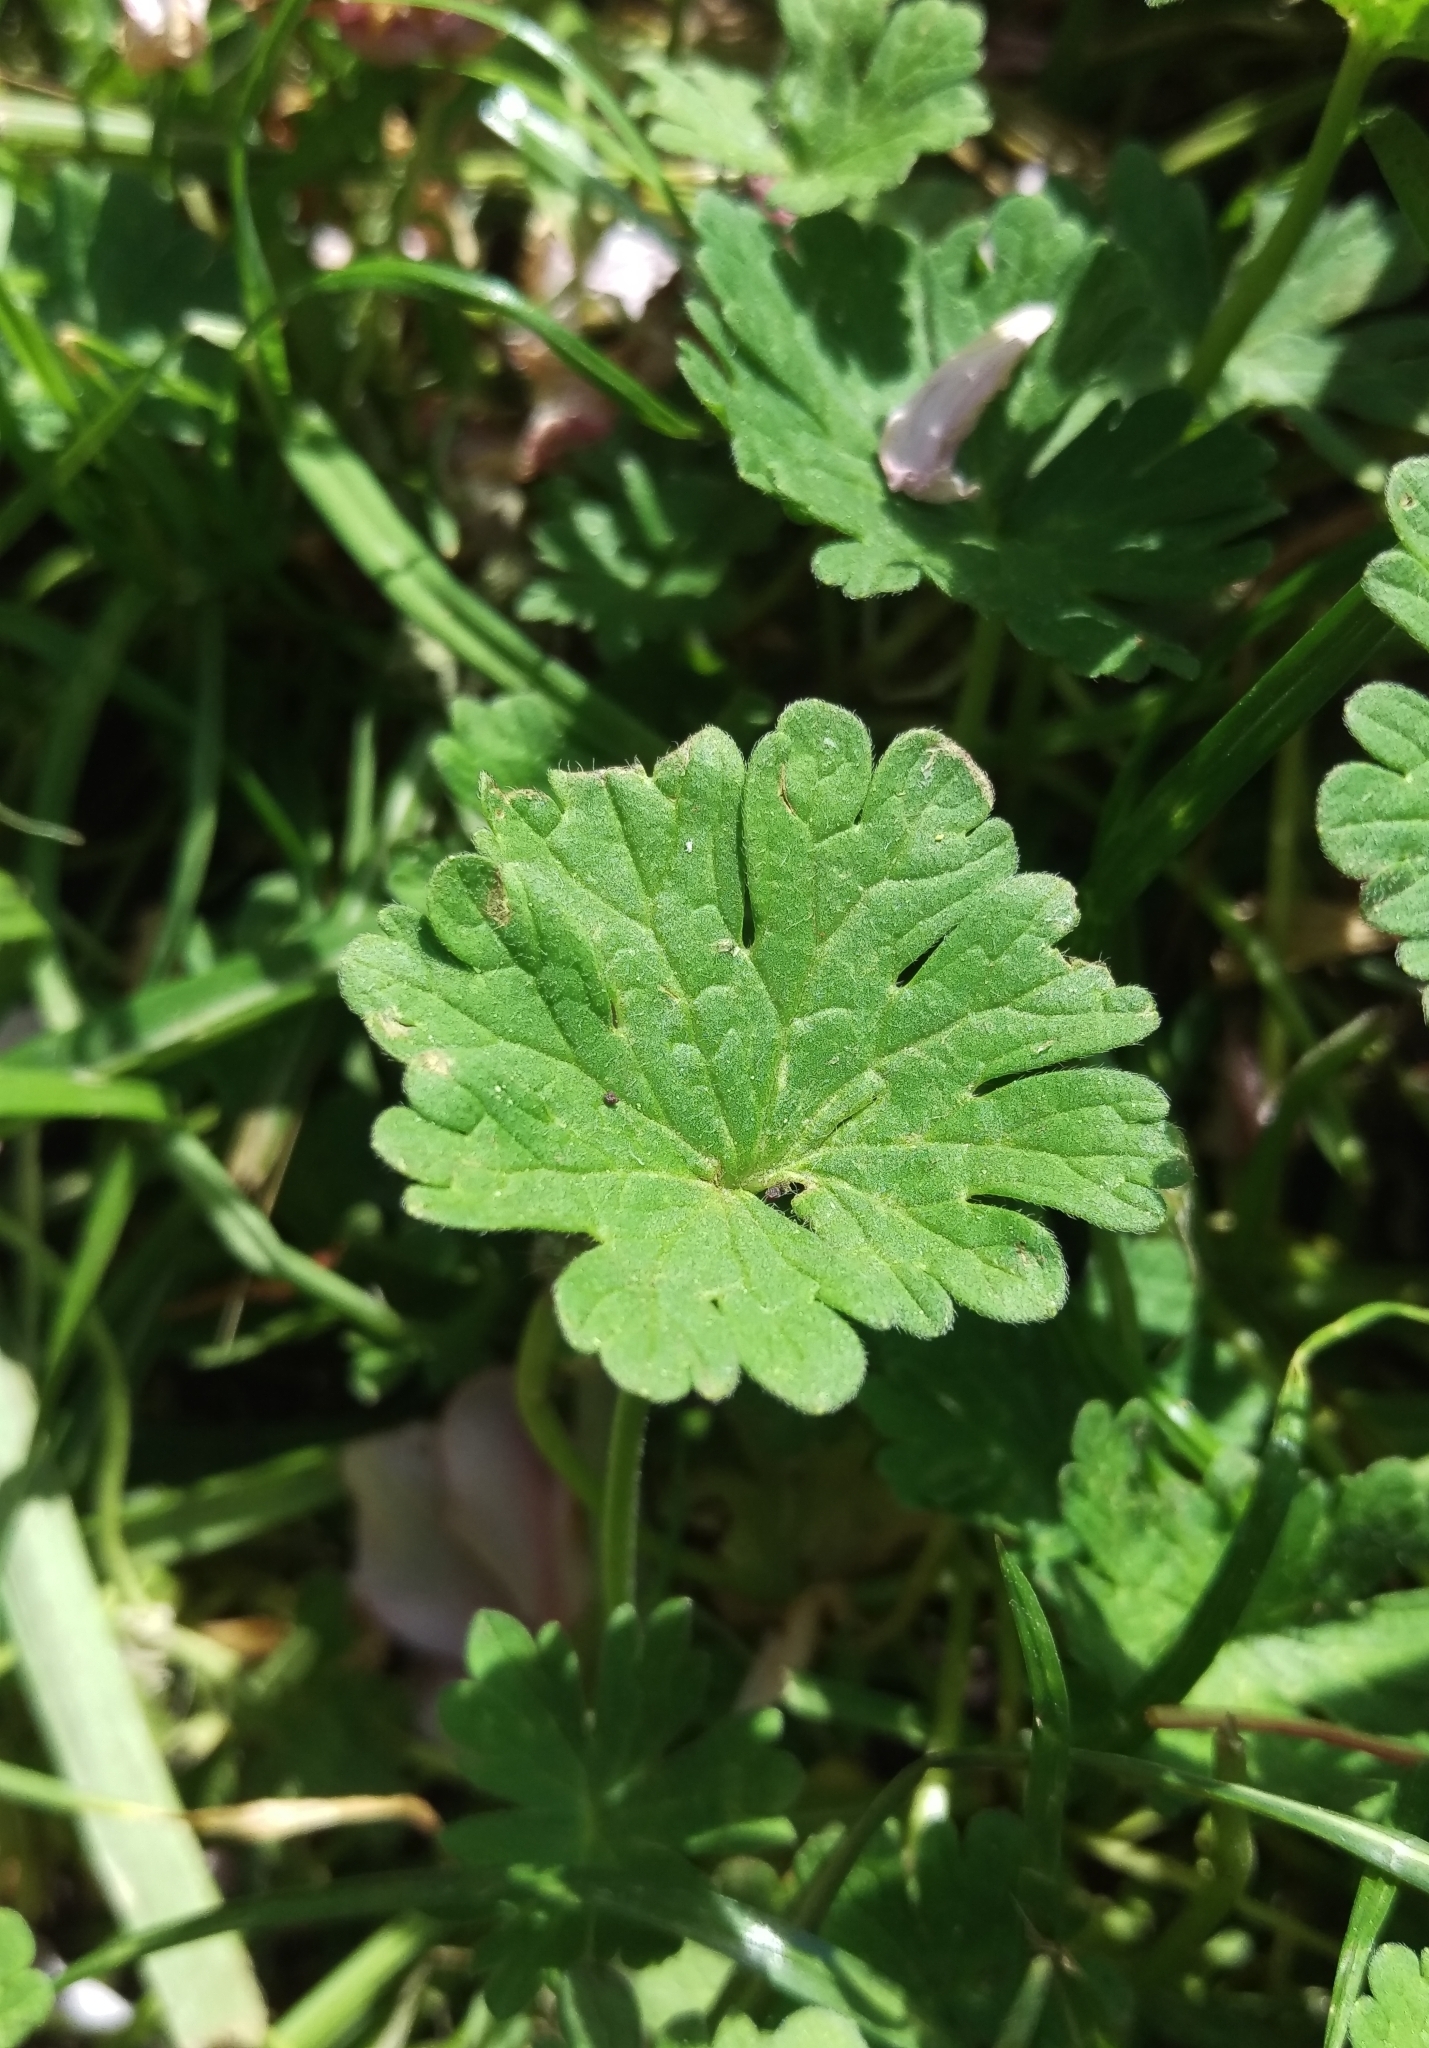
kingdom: Plantae
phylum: Tracheophyta
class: Magnoliopsida
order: Geraniales
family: Geraniaceae
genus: Geranium
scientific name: Geranium molle
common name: Dove's-foot crane's-bill
